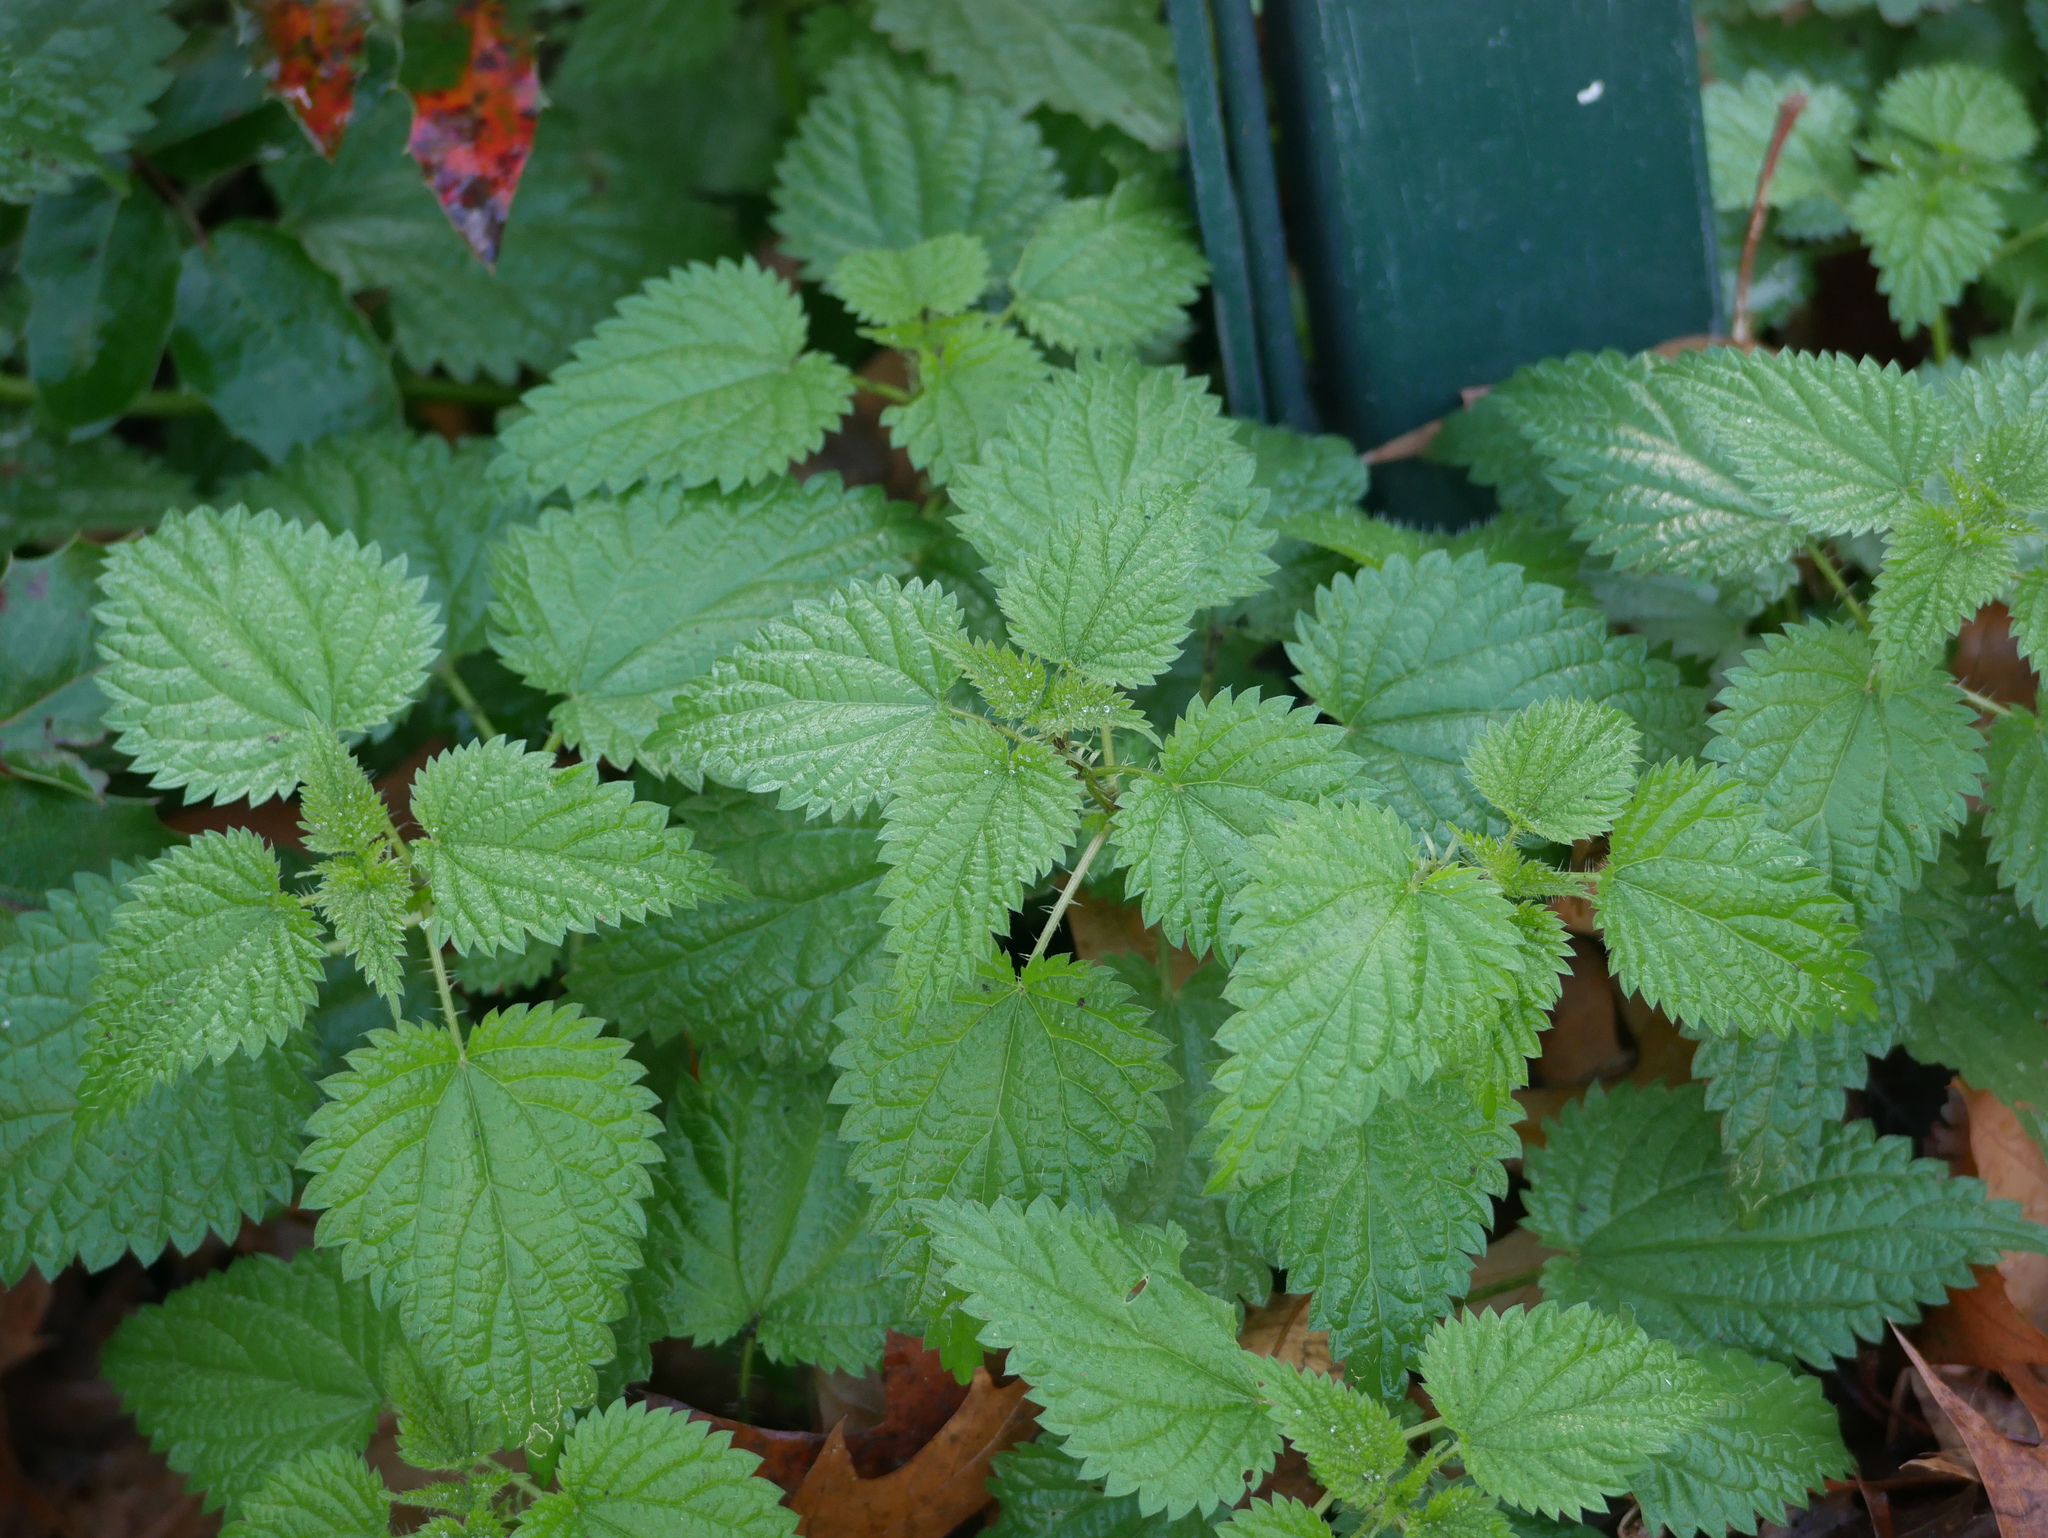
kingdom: Plantae
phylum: Tracheophyta
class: Magnoliopsida
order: Rosales
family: Urticaceae
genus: Urtica
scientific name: Urtica dioica
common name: Common nettle
